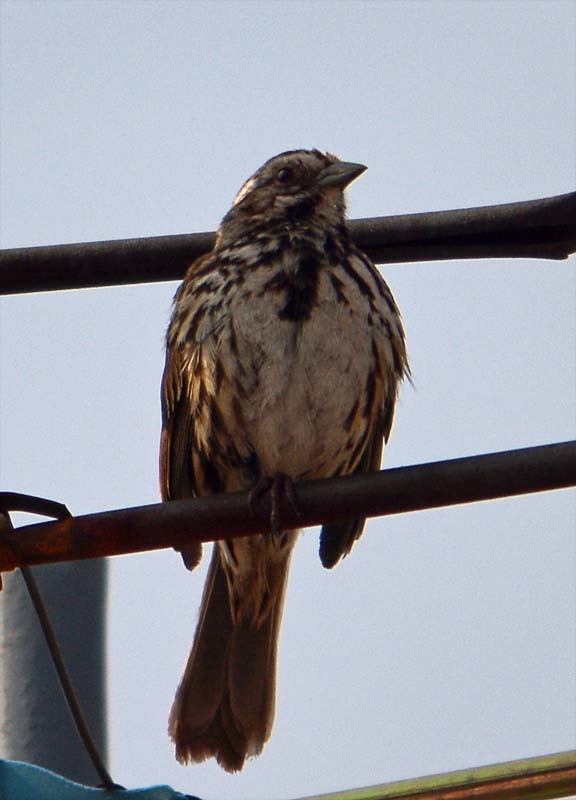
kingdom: Animalia
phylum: Chordata
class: Aves
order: Passeriformes
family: Passerellidae
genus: Melospiza
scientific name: Melospiza melodia
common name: Song sparrow
